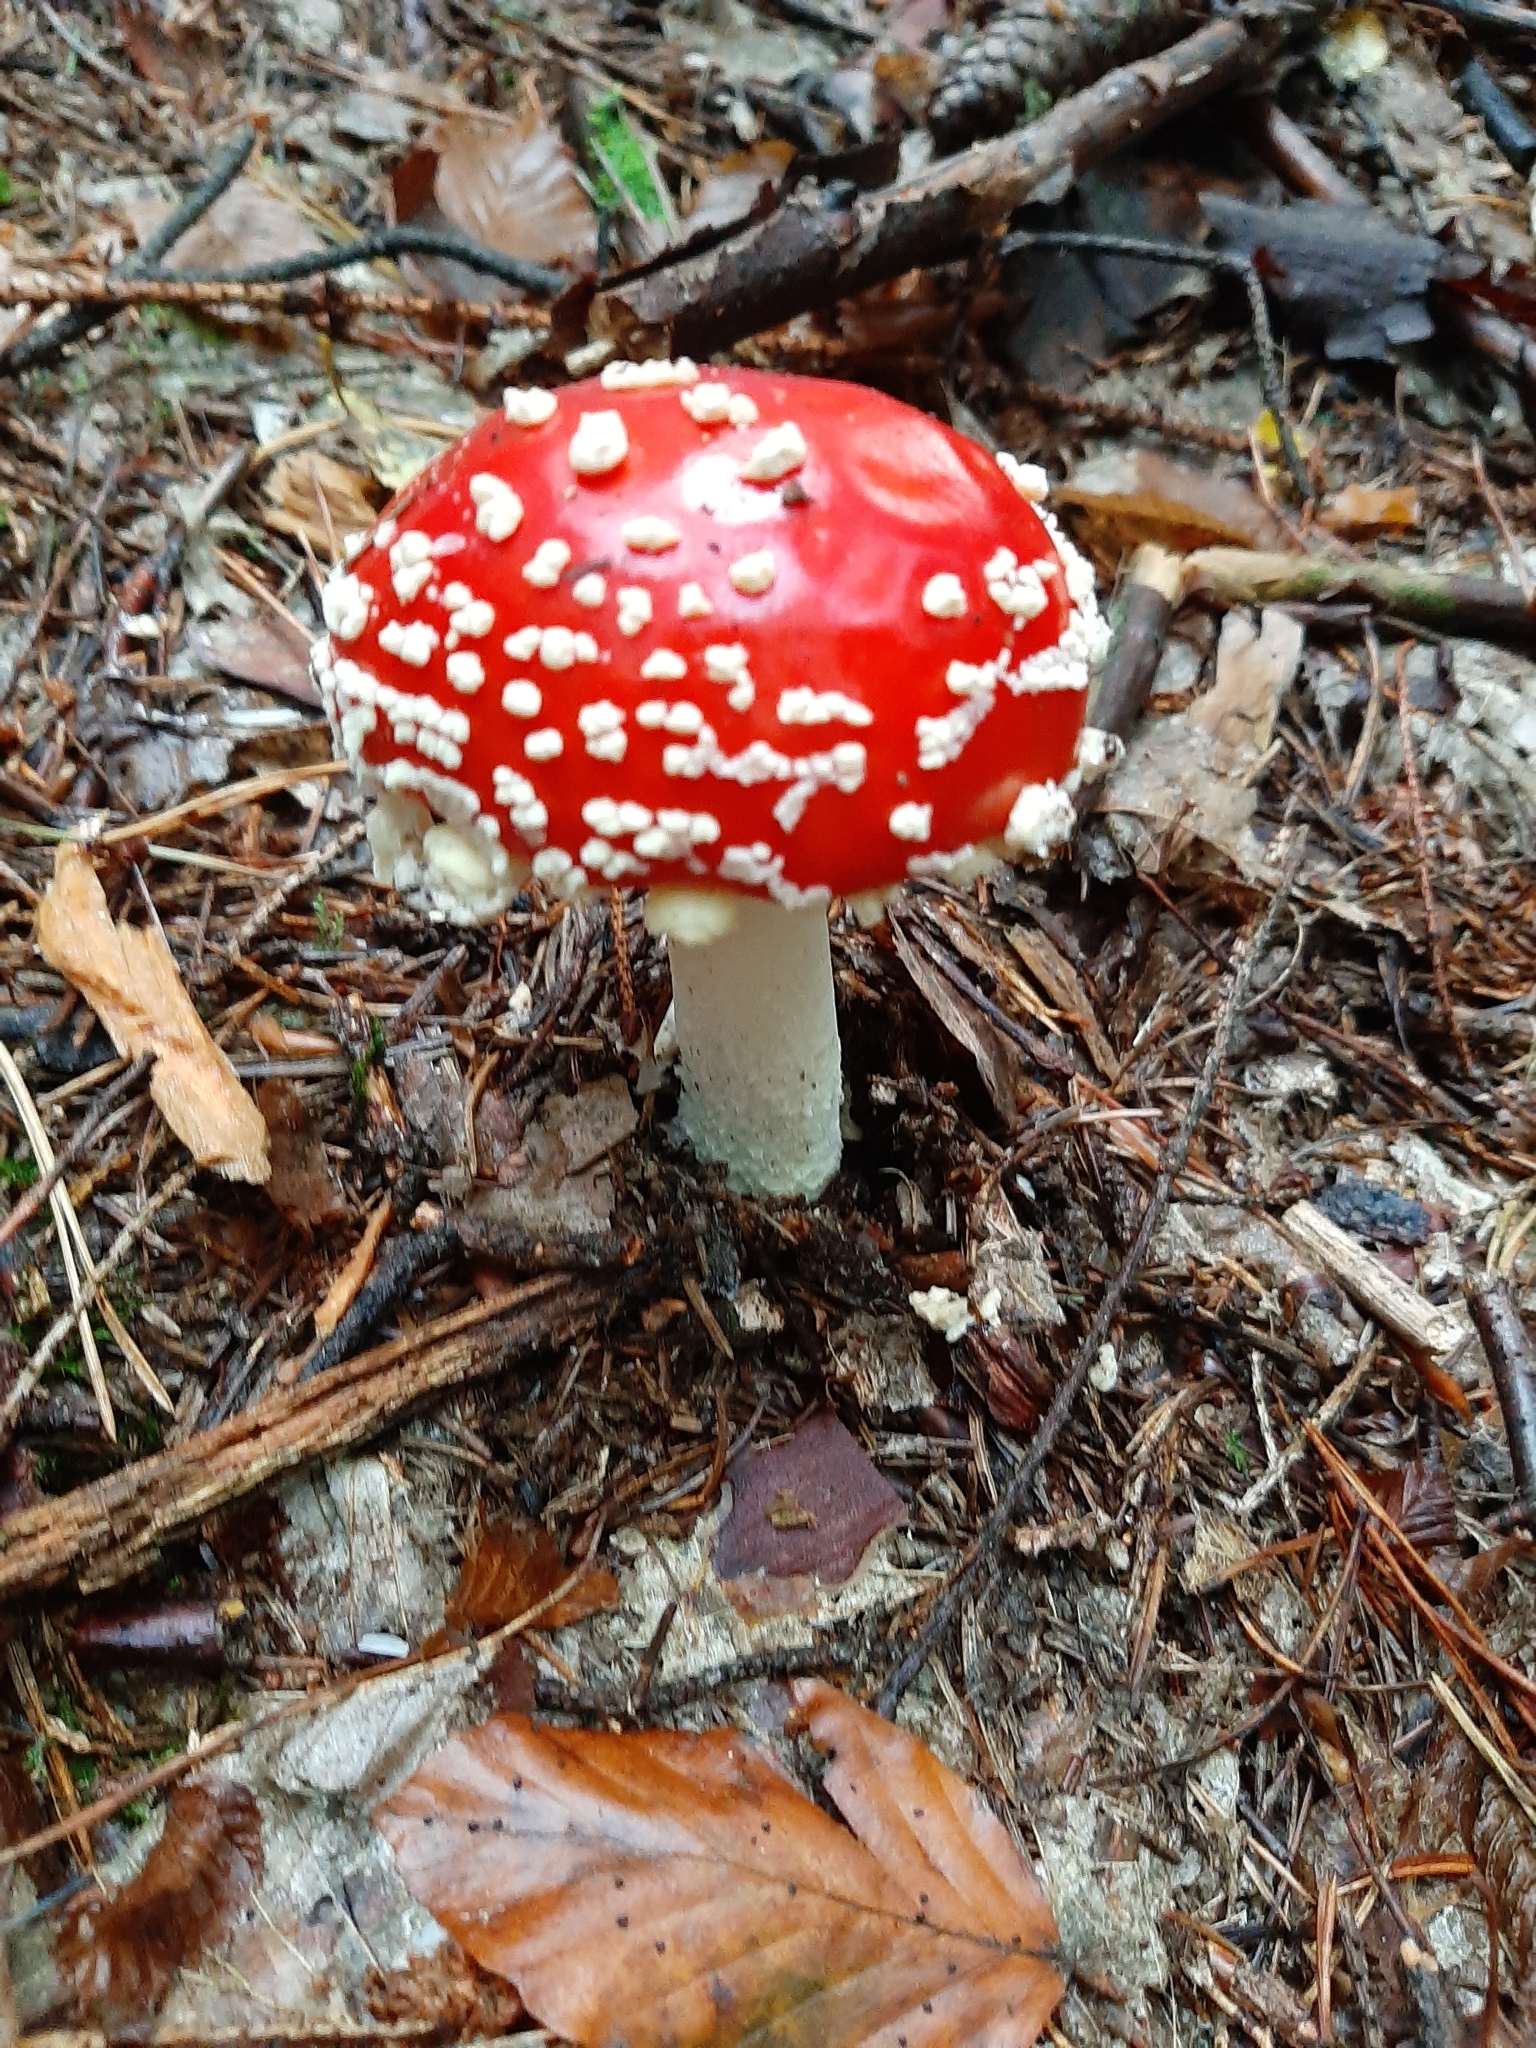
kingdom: Fungi
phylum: Basidiomycota
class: Agaricomycetes
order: Agaricales
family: Amanitaceae
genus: Amanita
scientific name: Amanita muscaria
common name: Fly agaric
